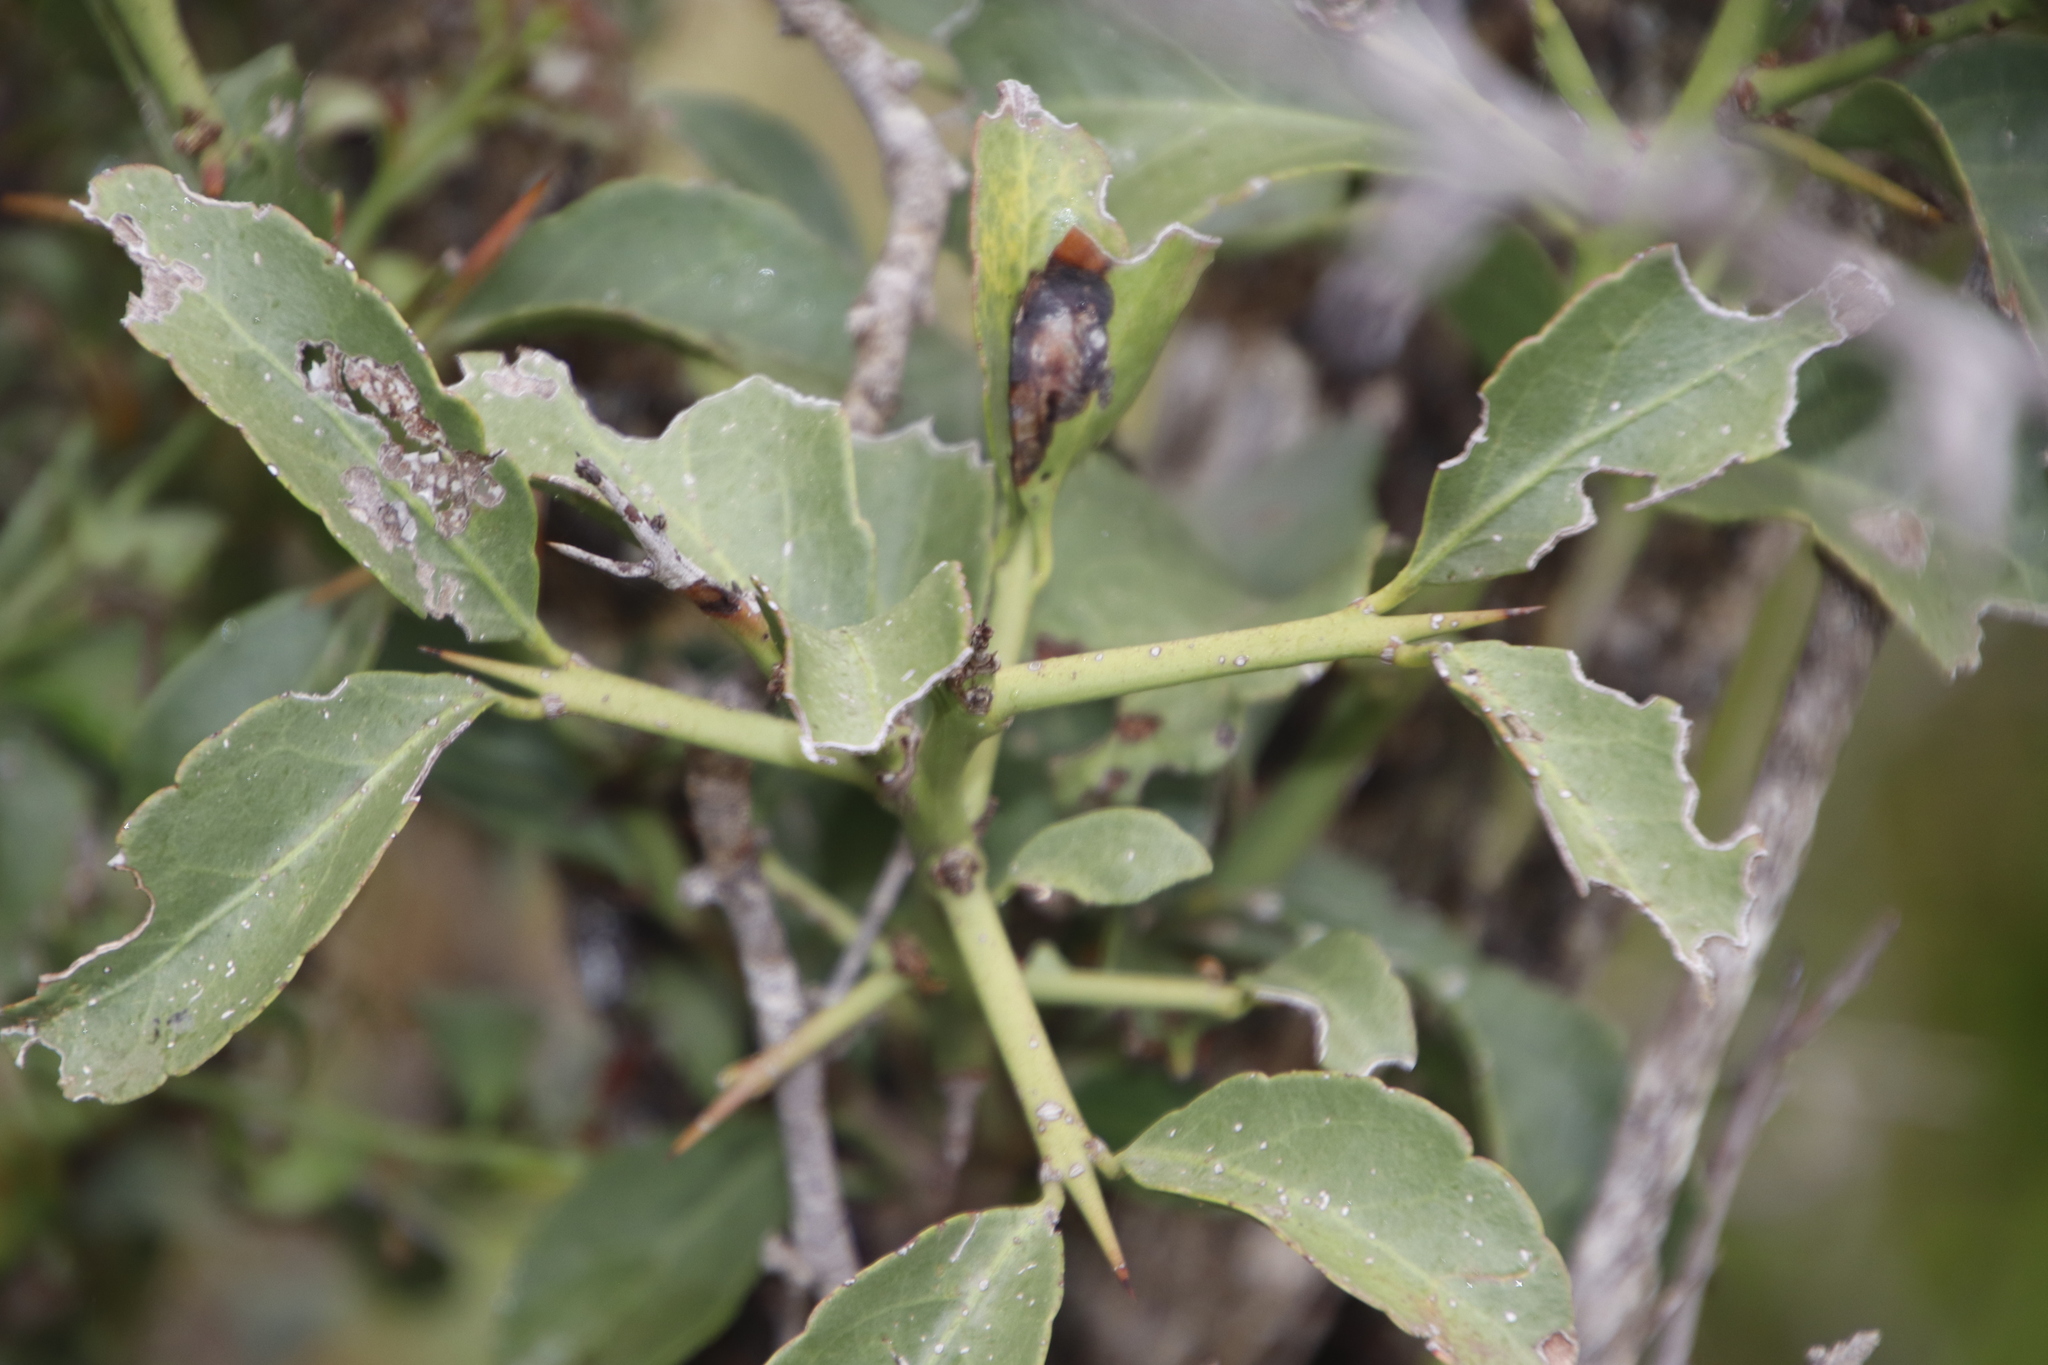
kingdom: Plantae
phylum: Tracheophyta
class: Magnoliopsida
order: Celastrales
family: Celastraceae
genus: Gymnosporia
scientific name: Gymnosporia buxifolia
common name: Common spike-thorn
